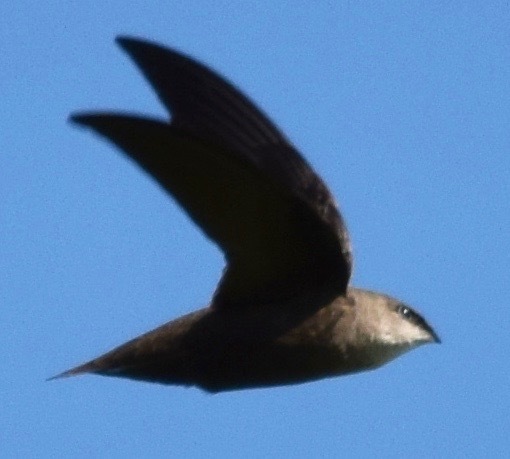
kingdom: Animalia
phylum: Chordata
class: Aves
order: Apodiformes
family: Apodidae
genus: Chaetura
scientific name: Chaetura pelagica
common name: Chimney swift
